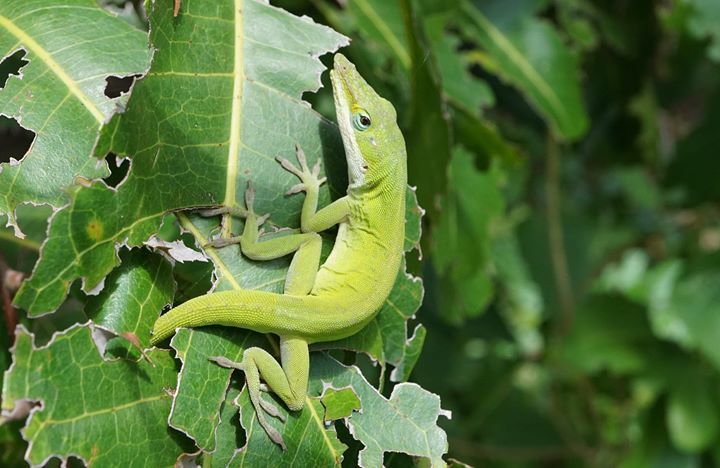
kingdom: Animalia
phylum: Chordata
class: Squamata
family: Dactyloidae
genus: Anolis
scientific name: Anolis carolinensis
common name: Green anole
